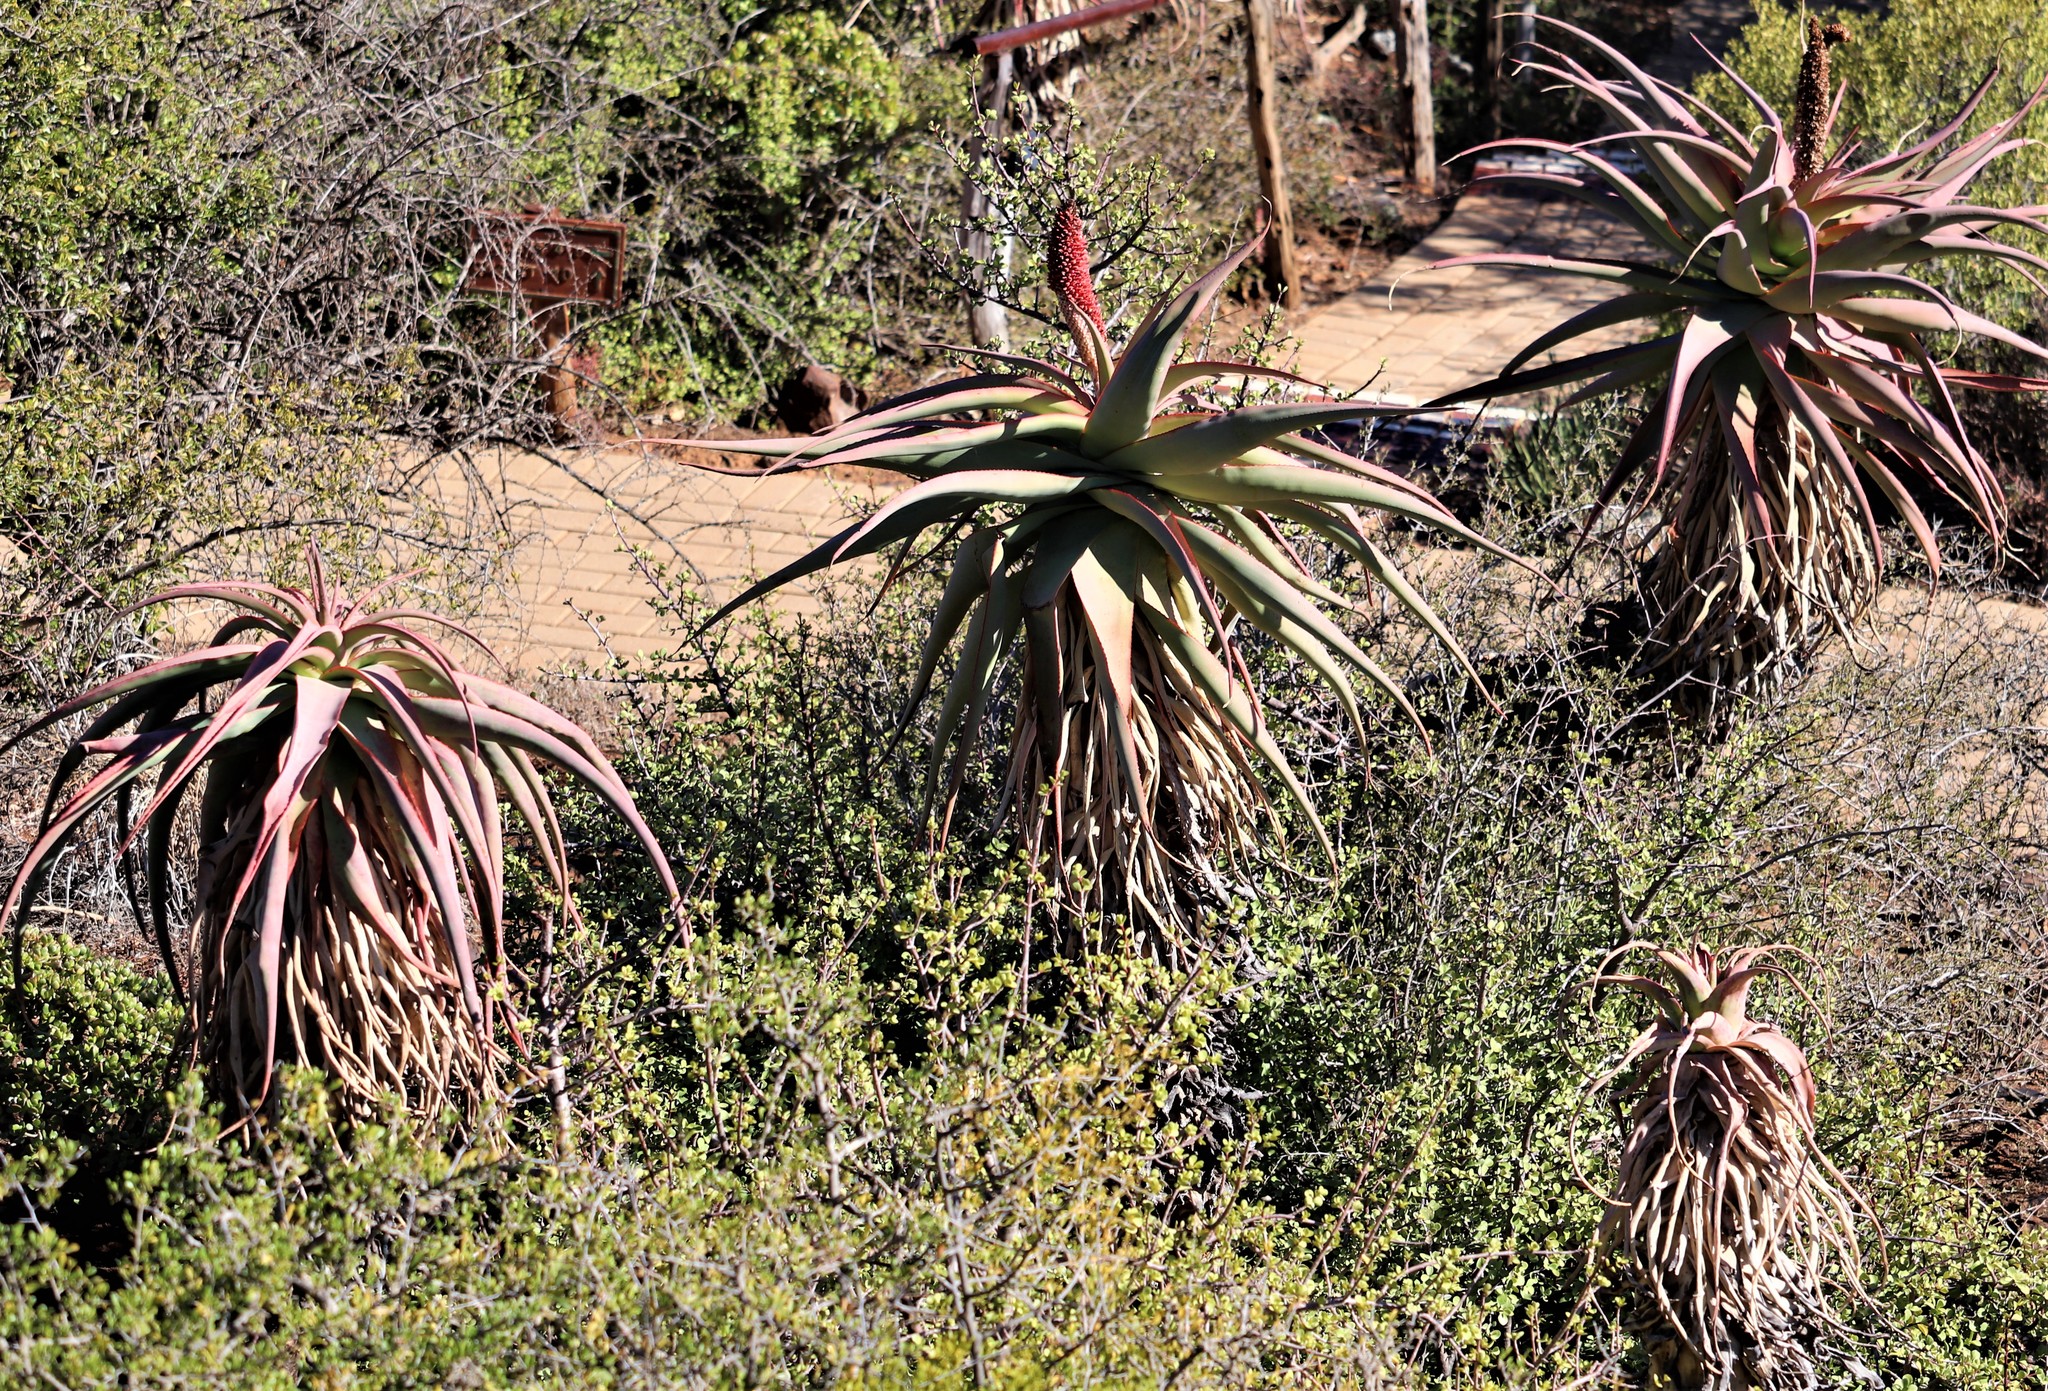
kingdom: Plantae
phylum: Tracheophyta
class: Liliopsida
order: Asparagales
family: Asphodelaceae
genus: Aloe
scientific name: Aloe speciosa
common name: Beautiful aloe
